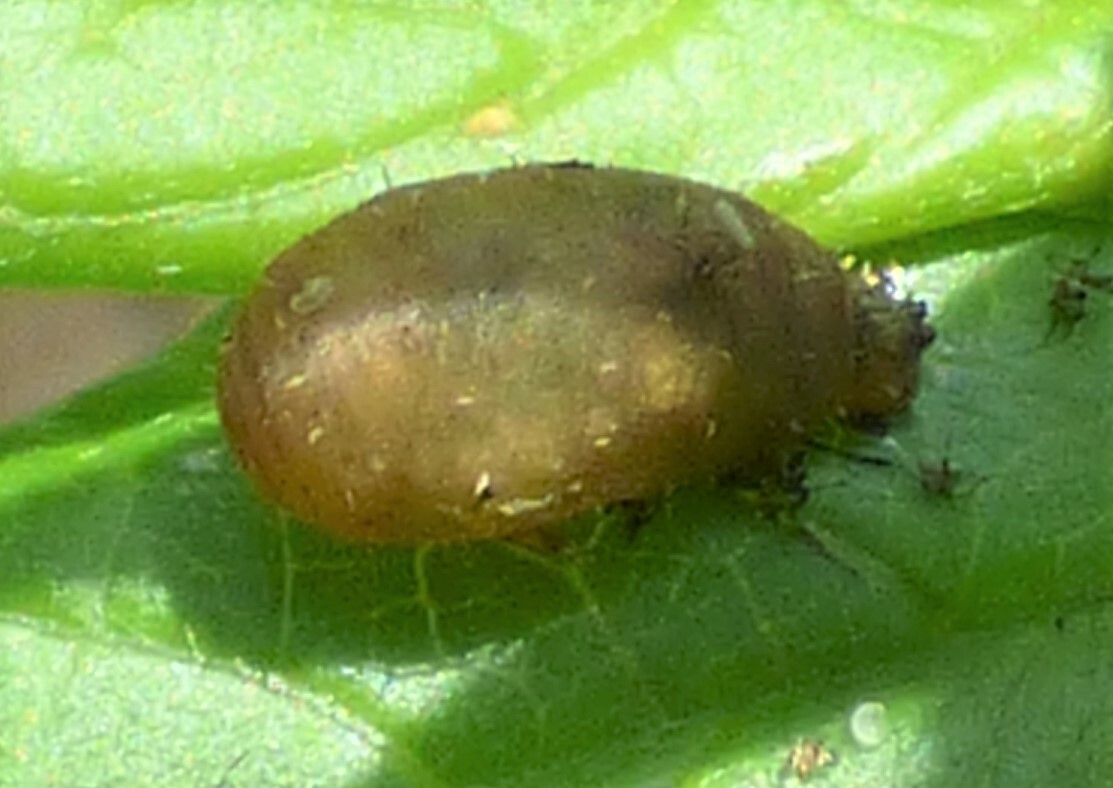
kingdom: Animalia
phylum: Arthropoda
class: Insecta
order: Diptera
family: Syrphidae
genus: Dioprosopa
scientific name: Dioprosopa clavatus
